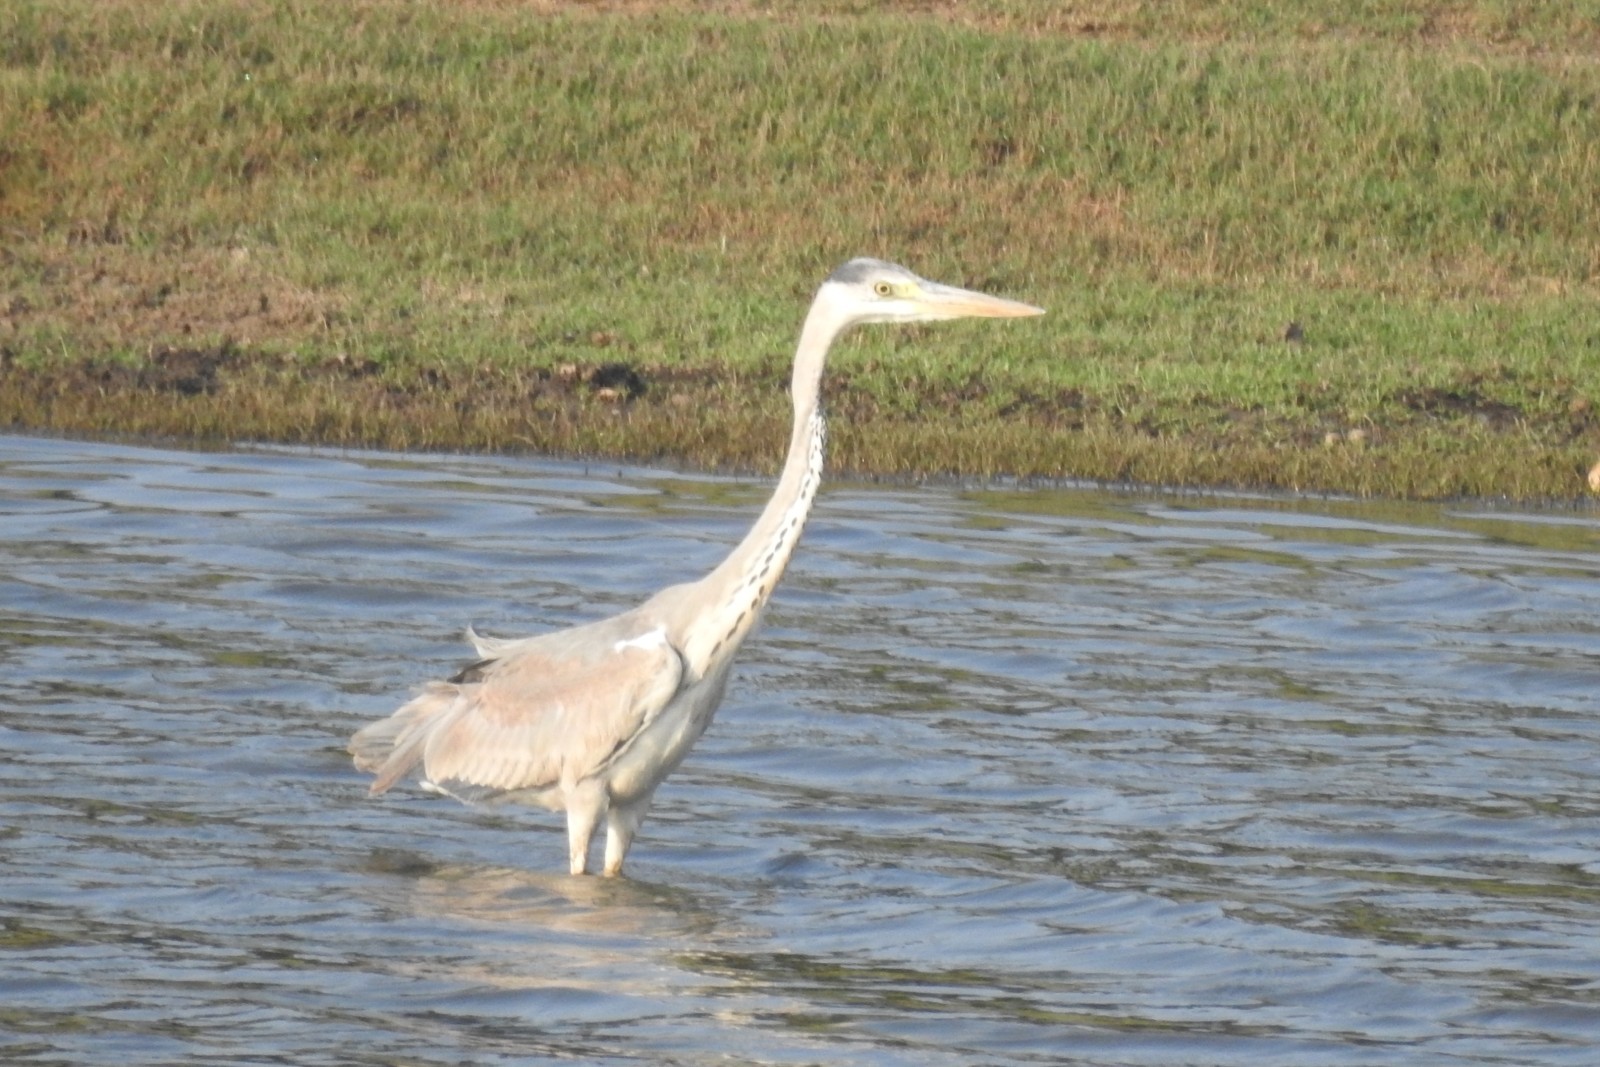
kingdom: Animalia
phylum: Chordata
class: Aves
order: Pelecaniformes
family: Ardeidae
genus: Ardea
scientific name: Ardea cinerea
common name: Grey heron
